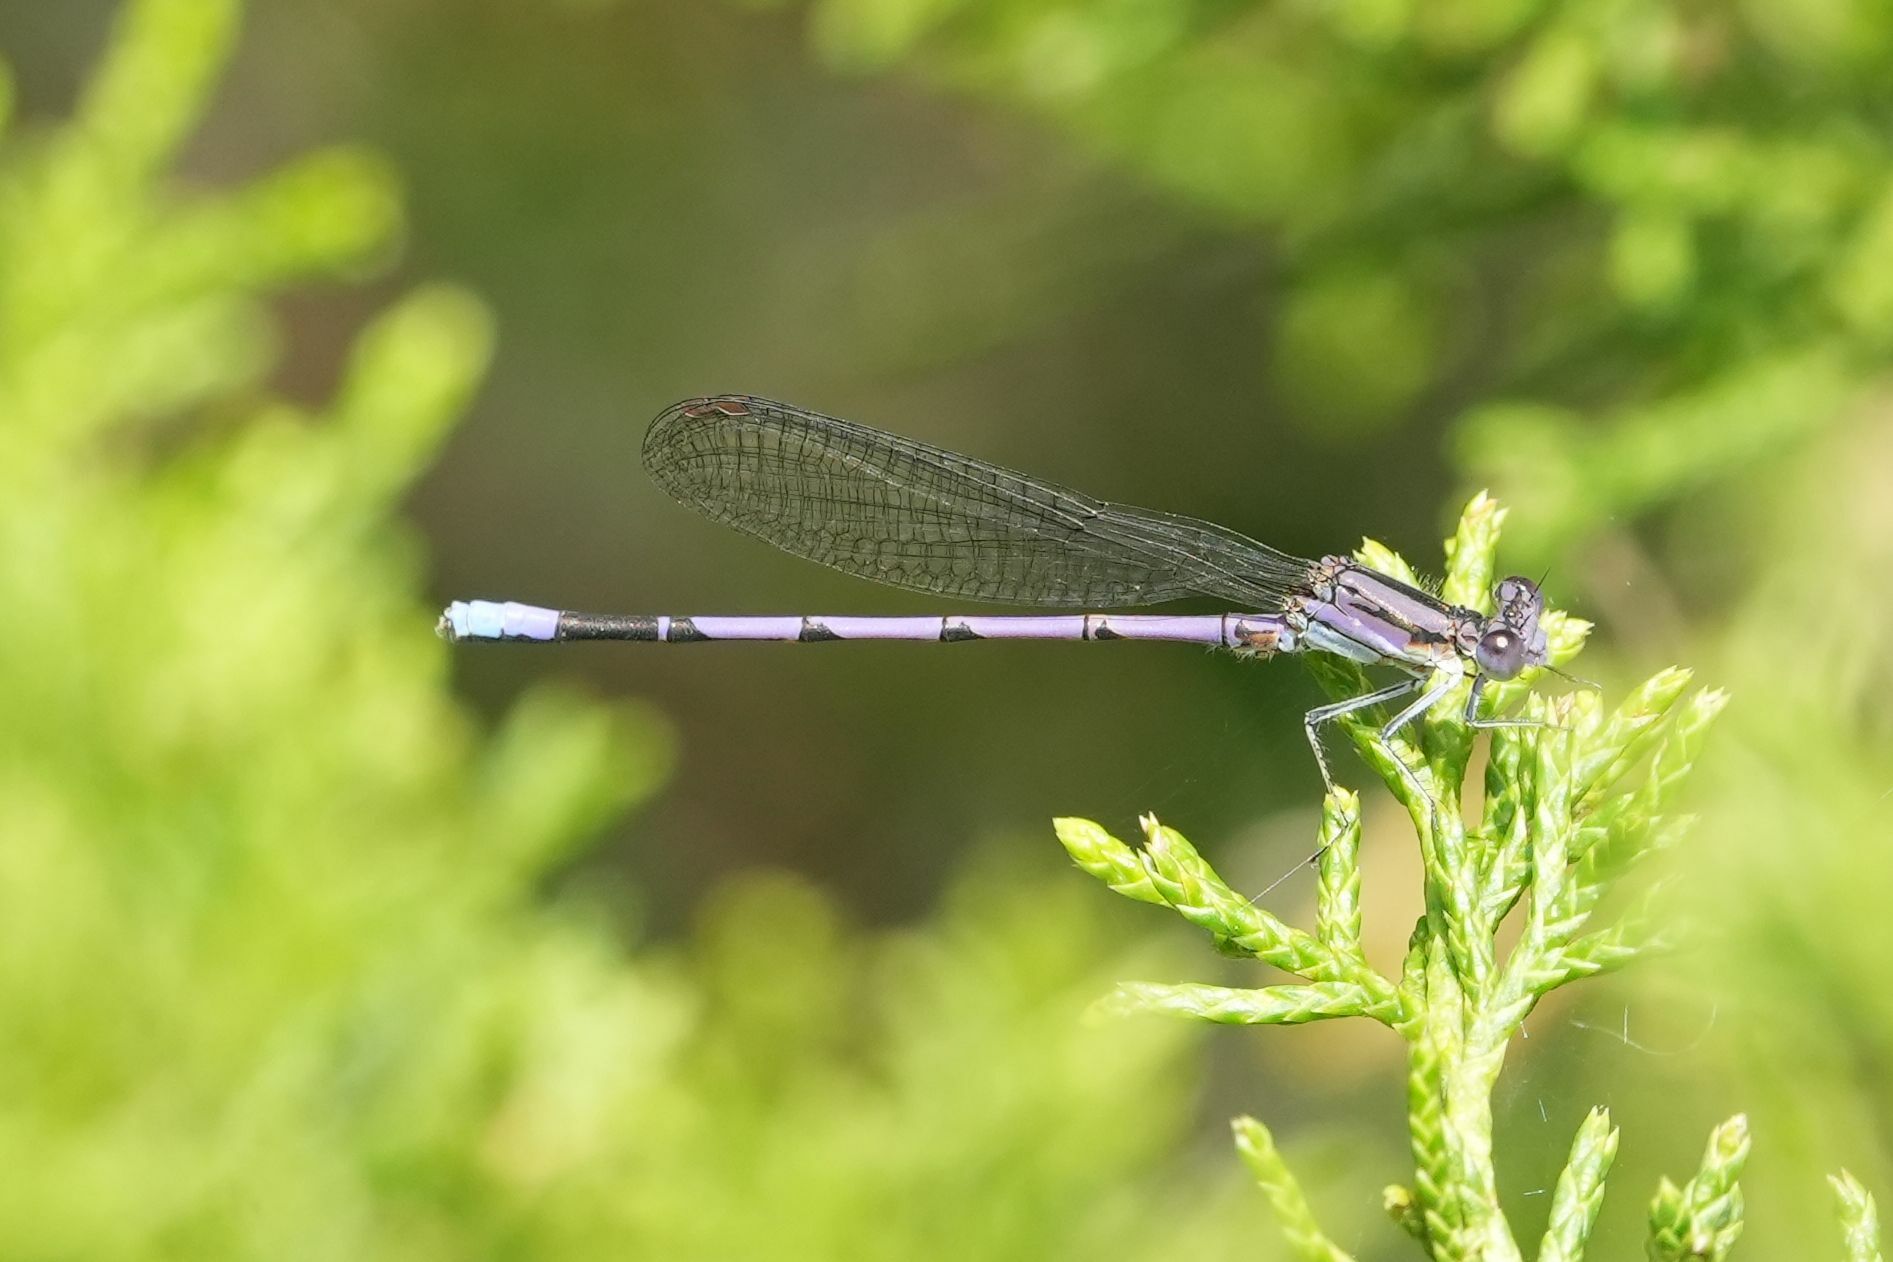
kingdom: Animalia
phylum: Arthropoda
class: Insecta
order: Odonata
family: Coenagrionidae
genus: Argia
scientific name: Argia fumipennis
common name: Variable dancer
